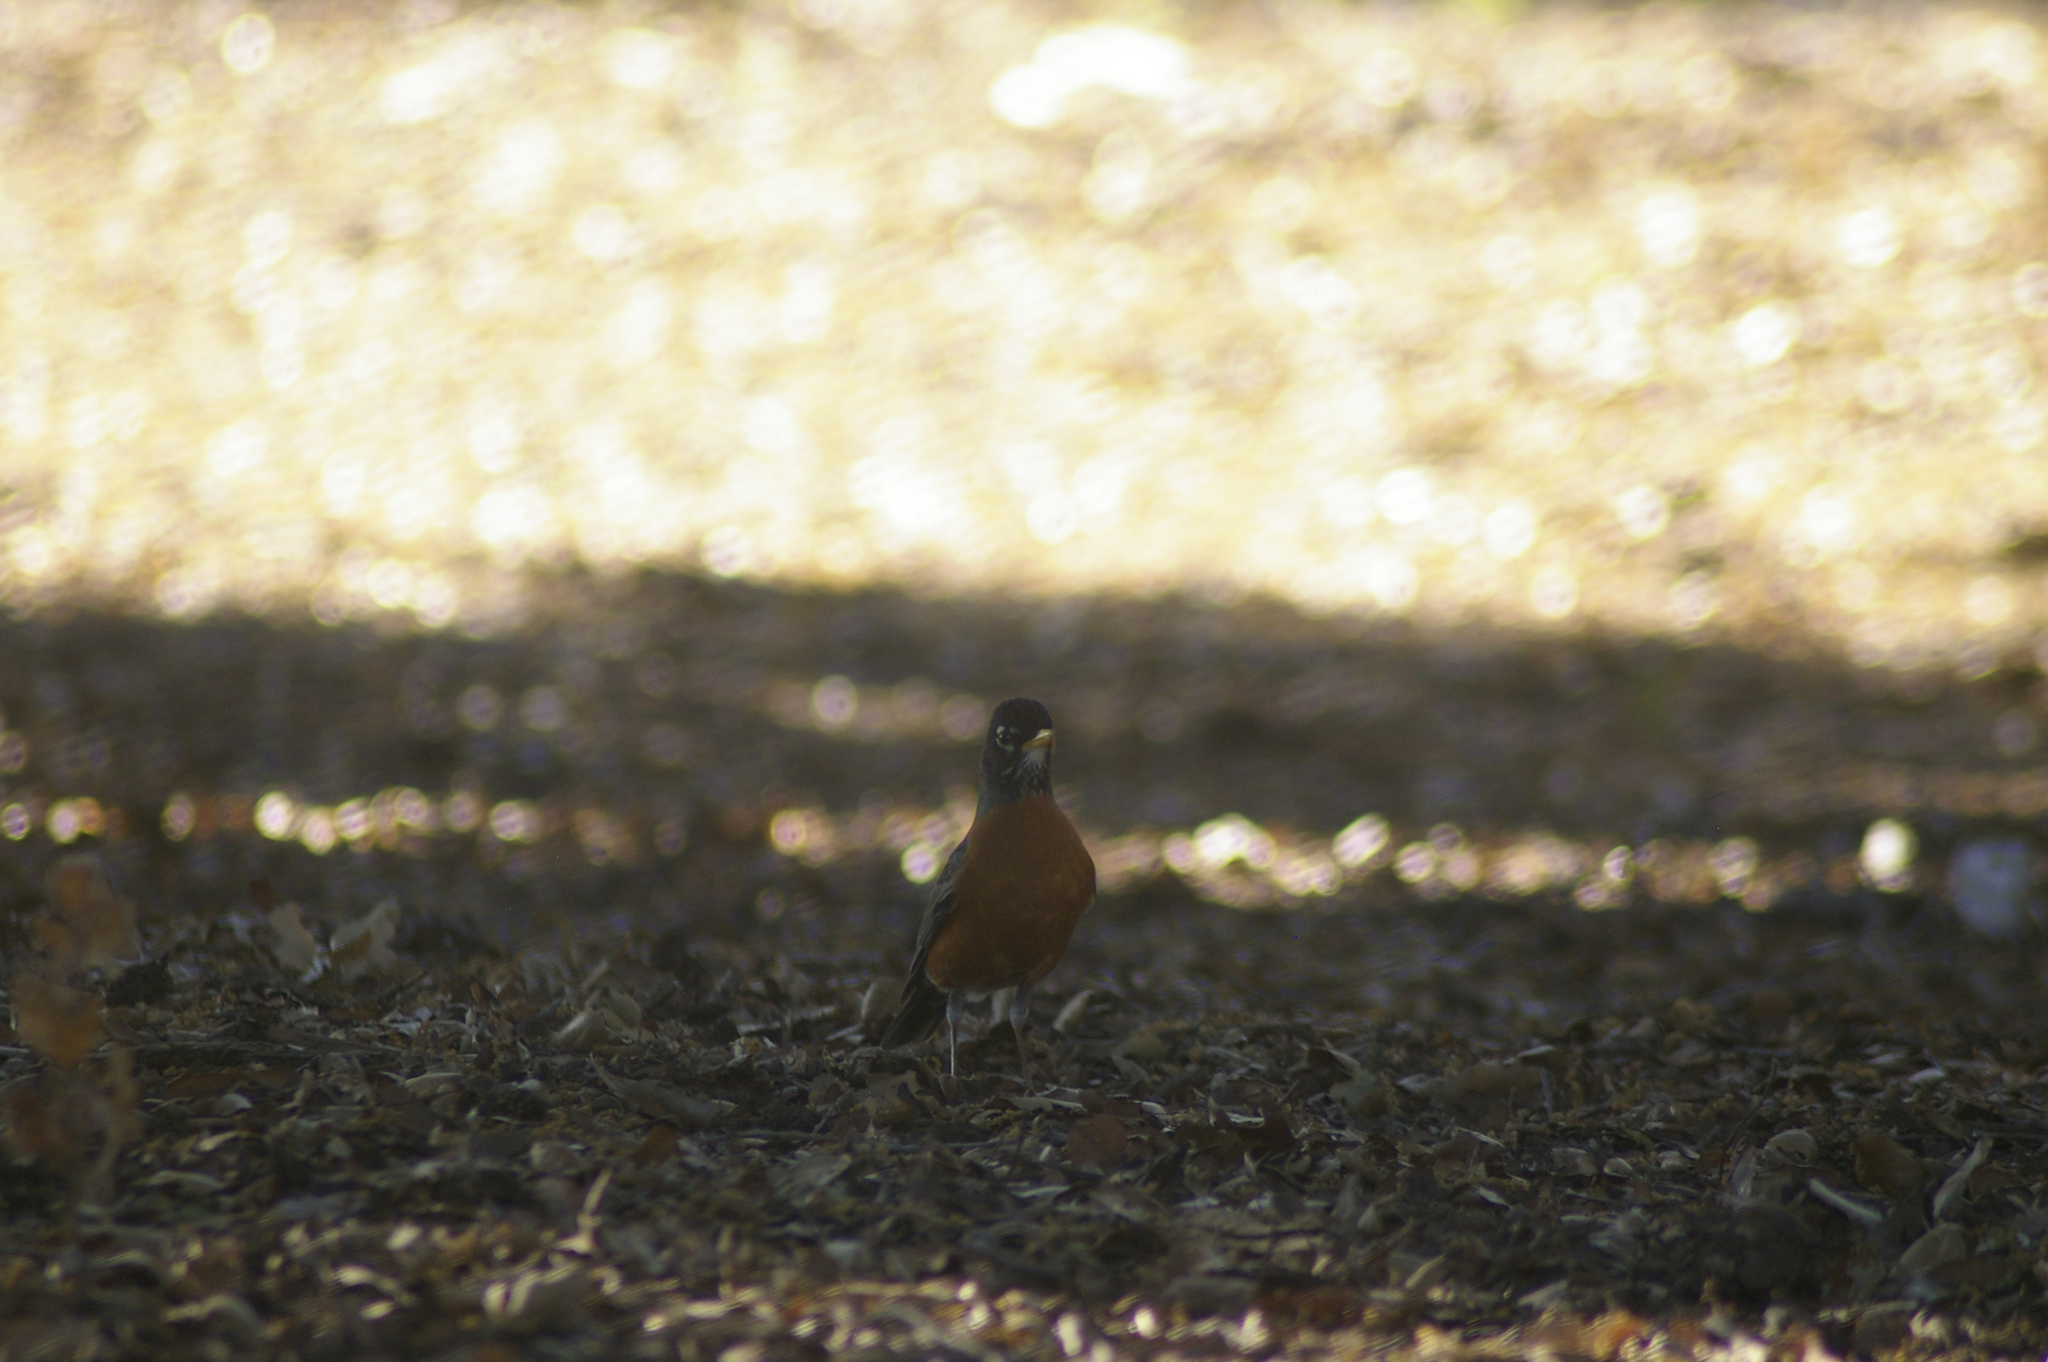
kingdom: Animalia
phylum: Chordata
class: Aves
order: Passeriformes
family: Turdidae
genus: Turdus
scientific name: Turdus migratorius
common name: American robin
